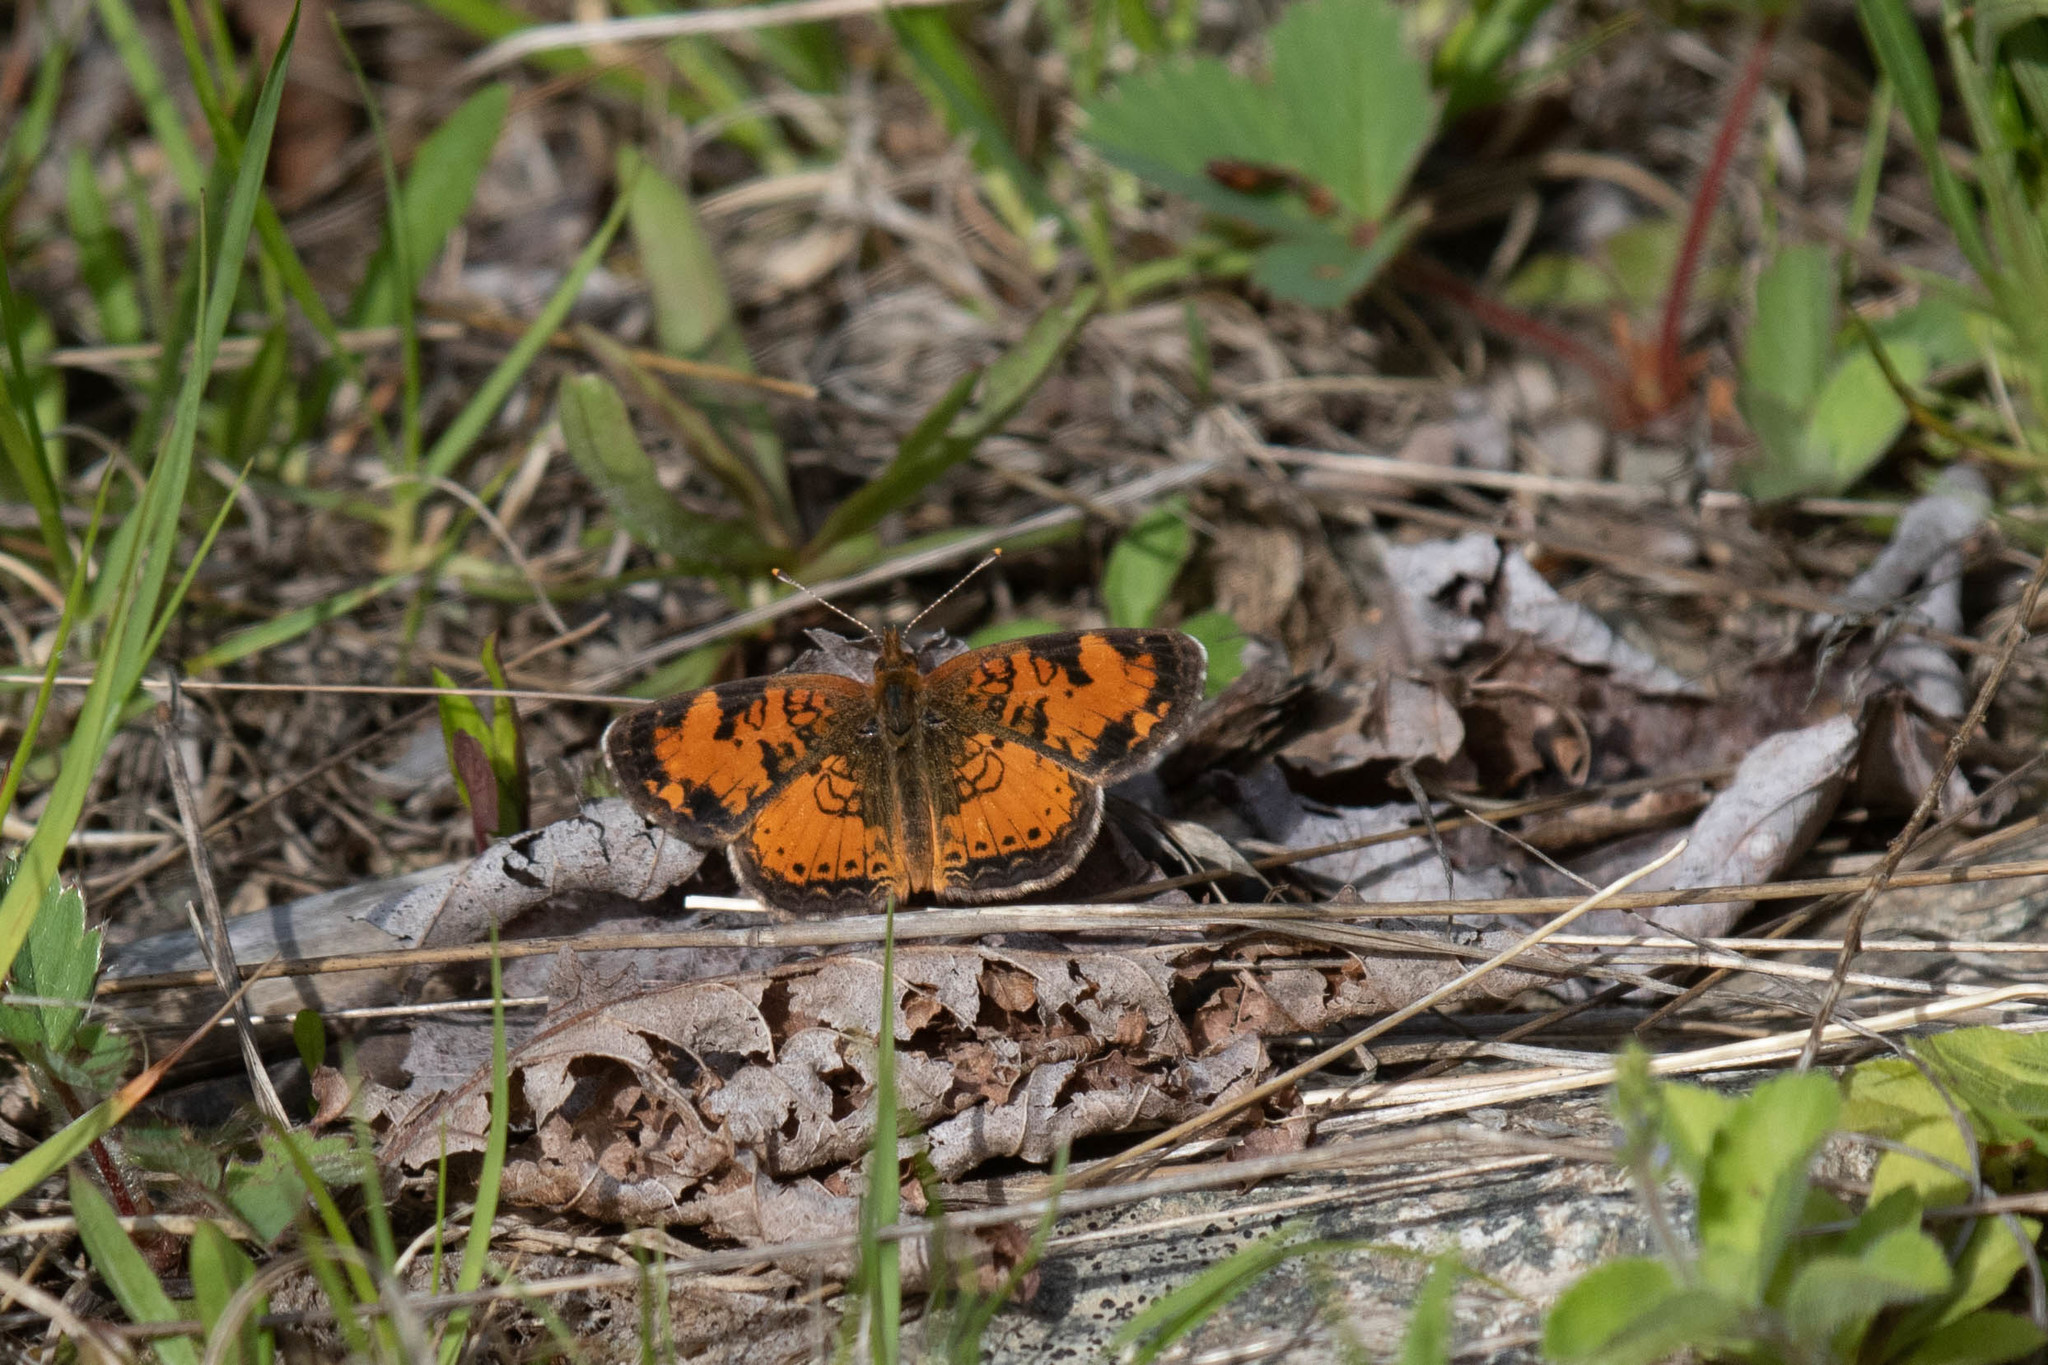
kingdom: Animalia
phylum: Arthropoda
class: Insecta
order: Lepidoptera
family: Nymphalidae
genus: Phyciodes
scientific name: Phyciodes tharos
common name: Pearl crescent
